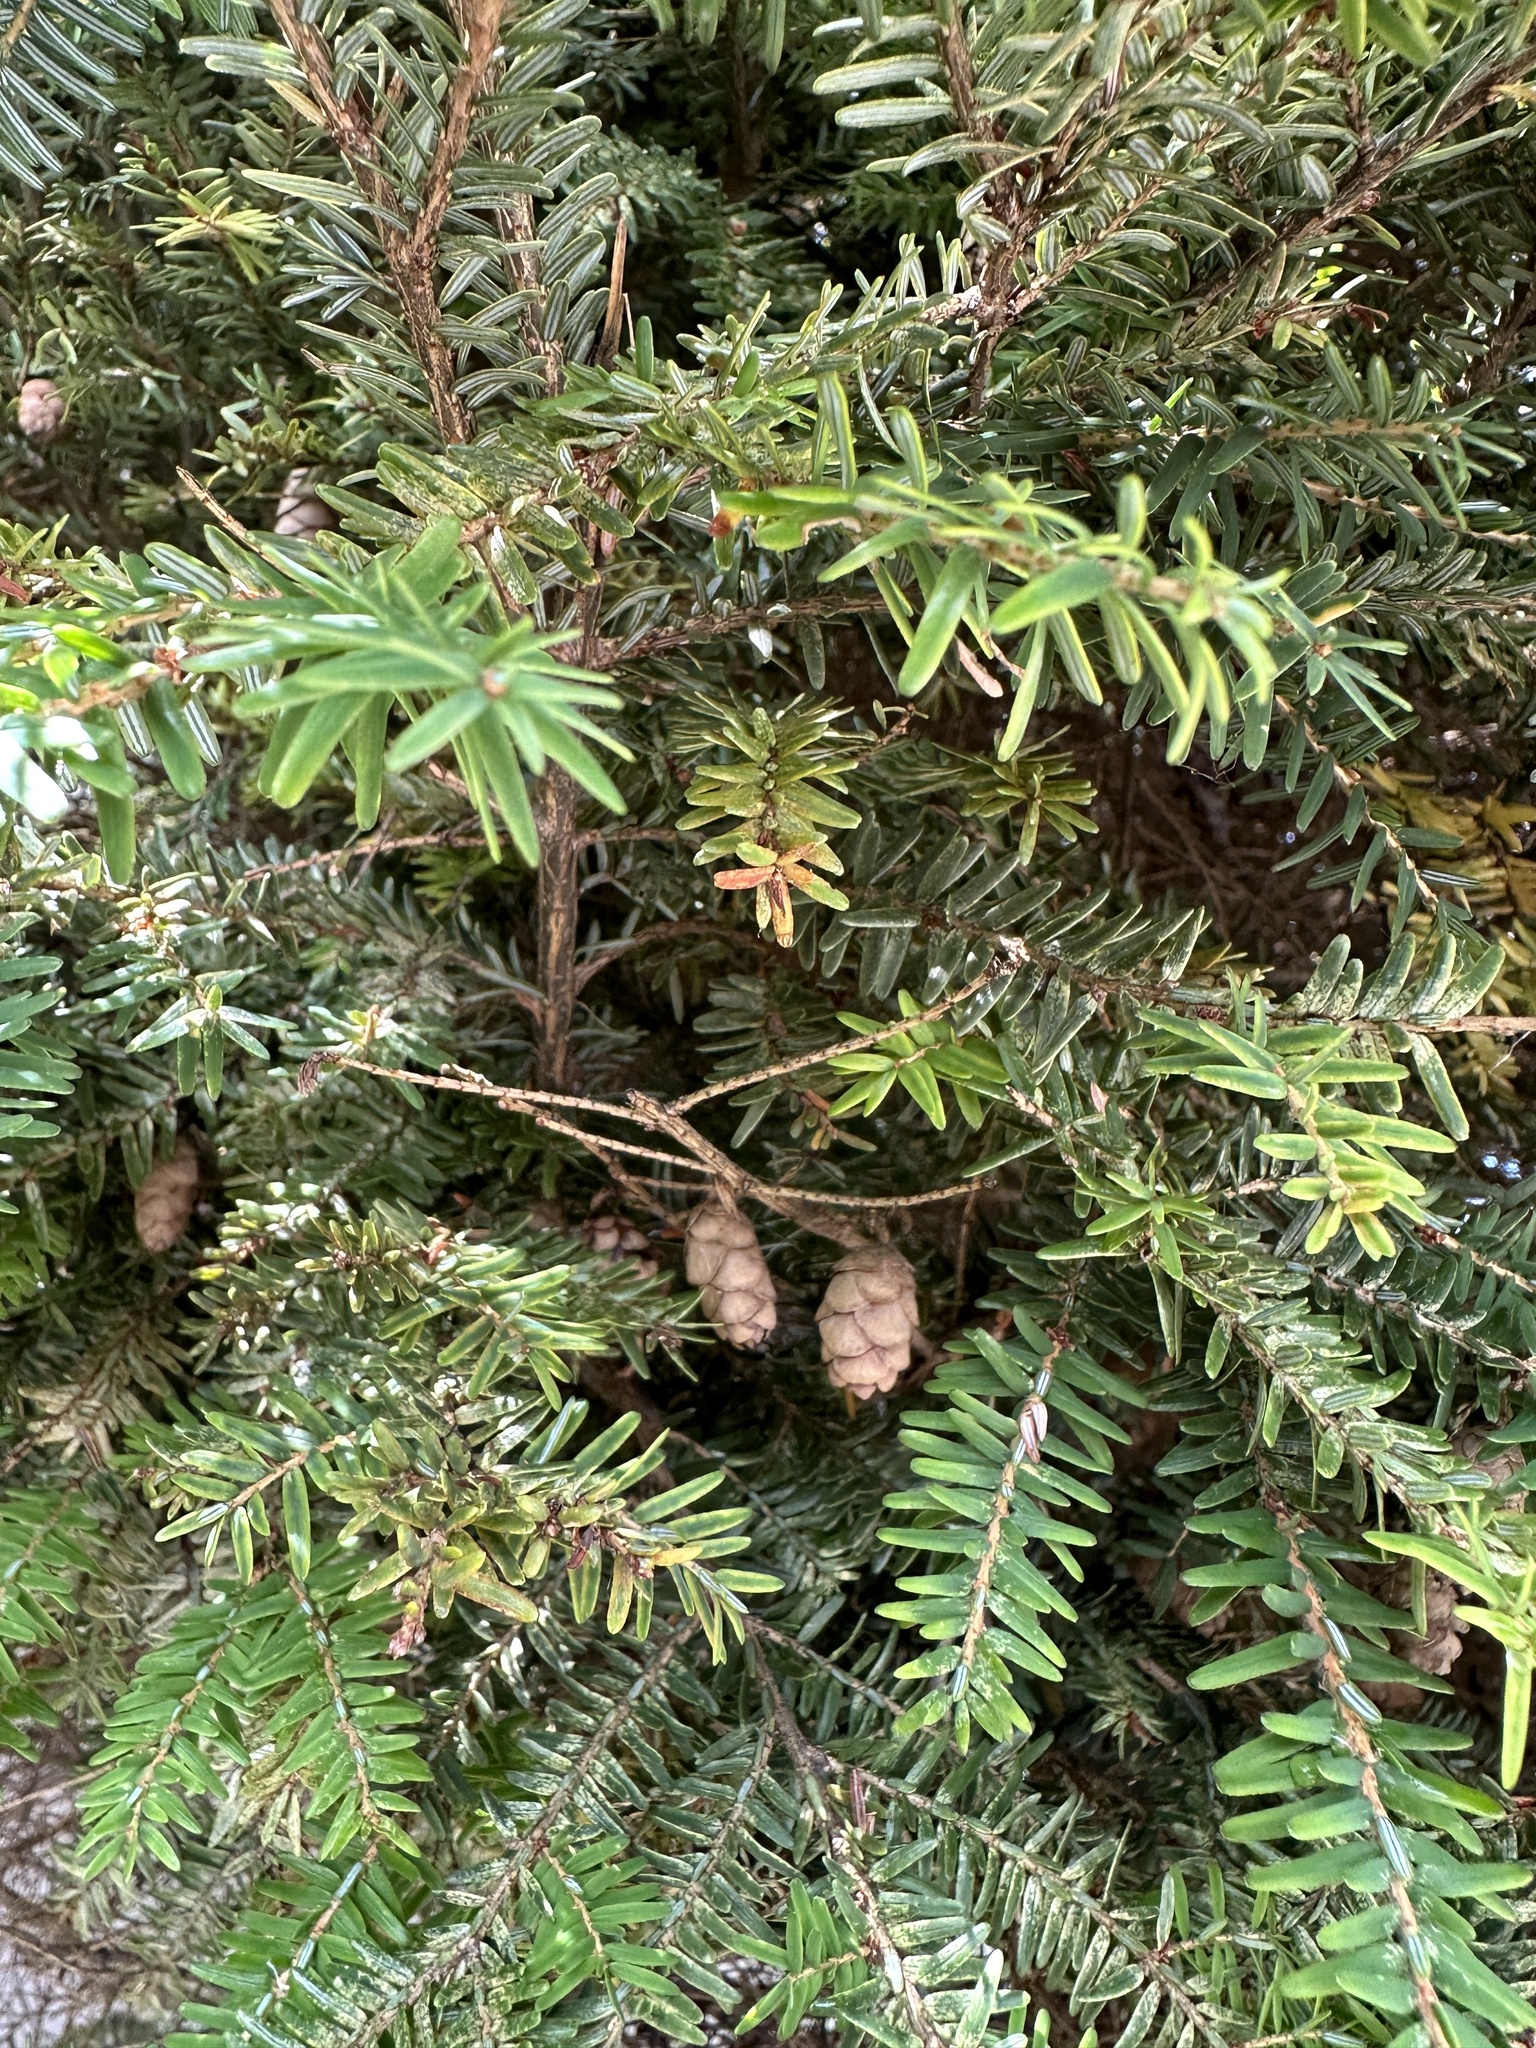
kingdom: Plantae
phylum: Tracheophyta
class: Pinopsida
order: Pinales
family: Pinaceae
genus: Tsuga
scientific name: Tsuga canadensis
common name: Eastern hemlock
